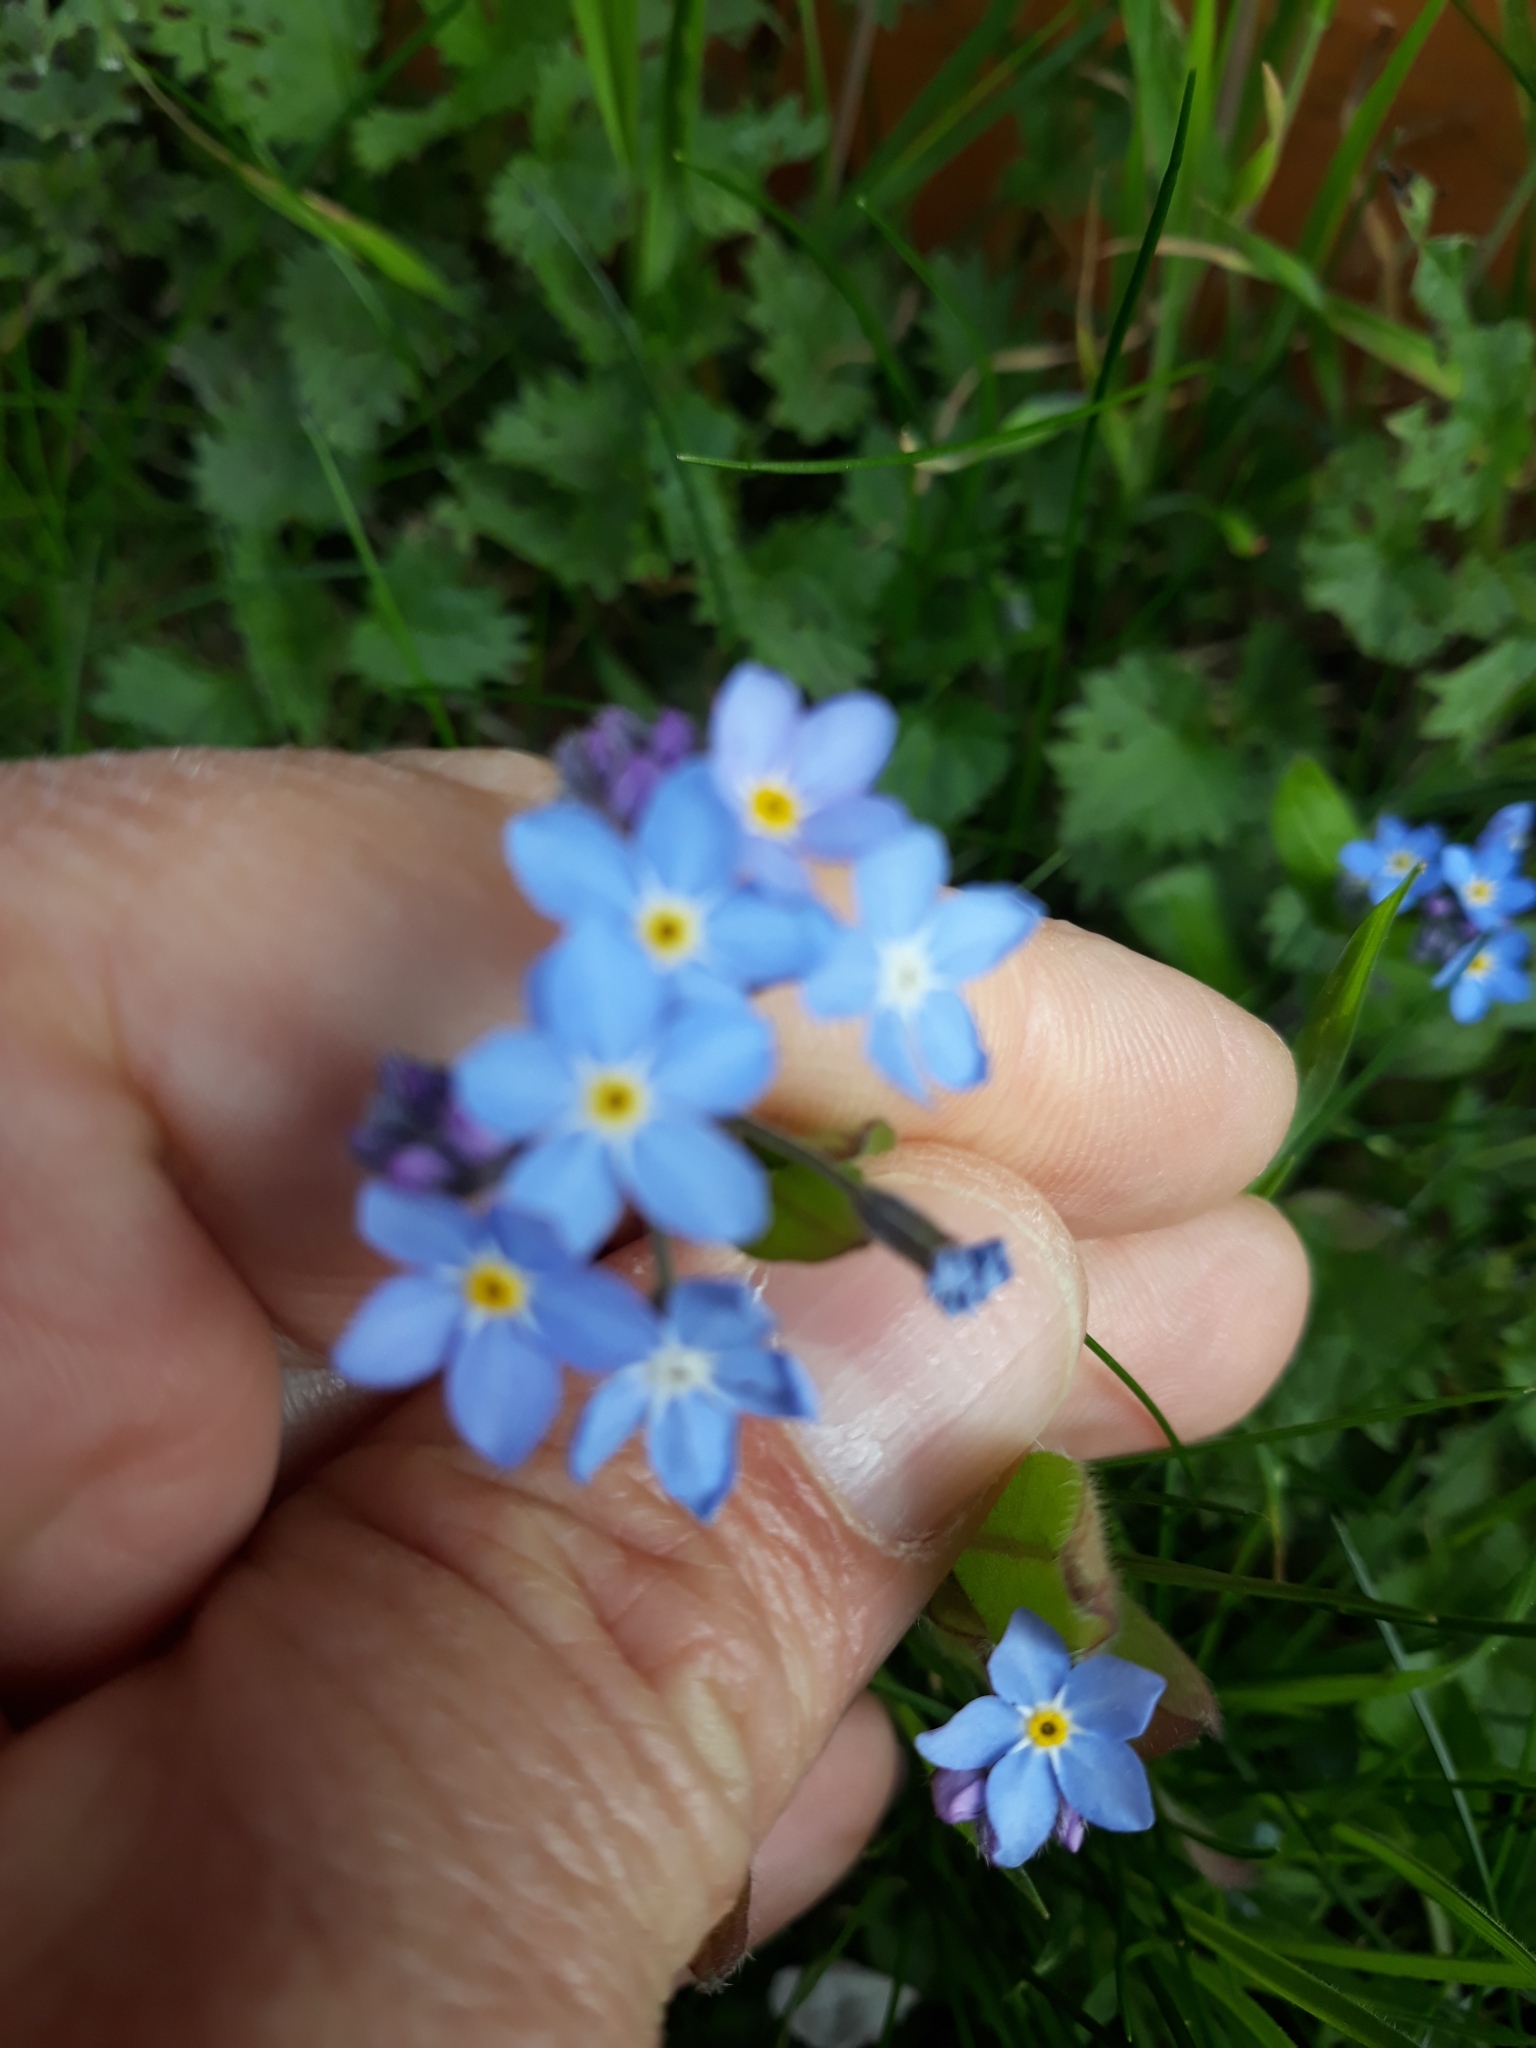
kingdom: Plantae
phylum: Tracheophyta
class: Magnoliopsida
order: Boraginales
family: Boraginaceae
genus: Myosotis
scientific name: Myosotis sylvatica
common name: Wood forget-me-not
